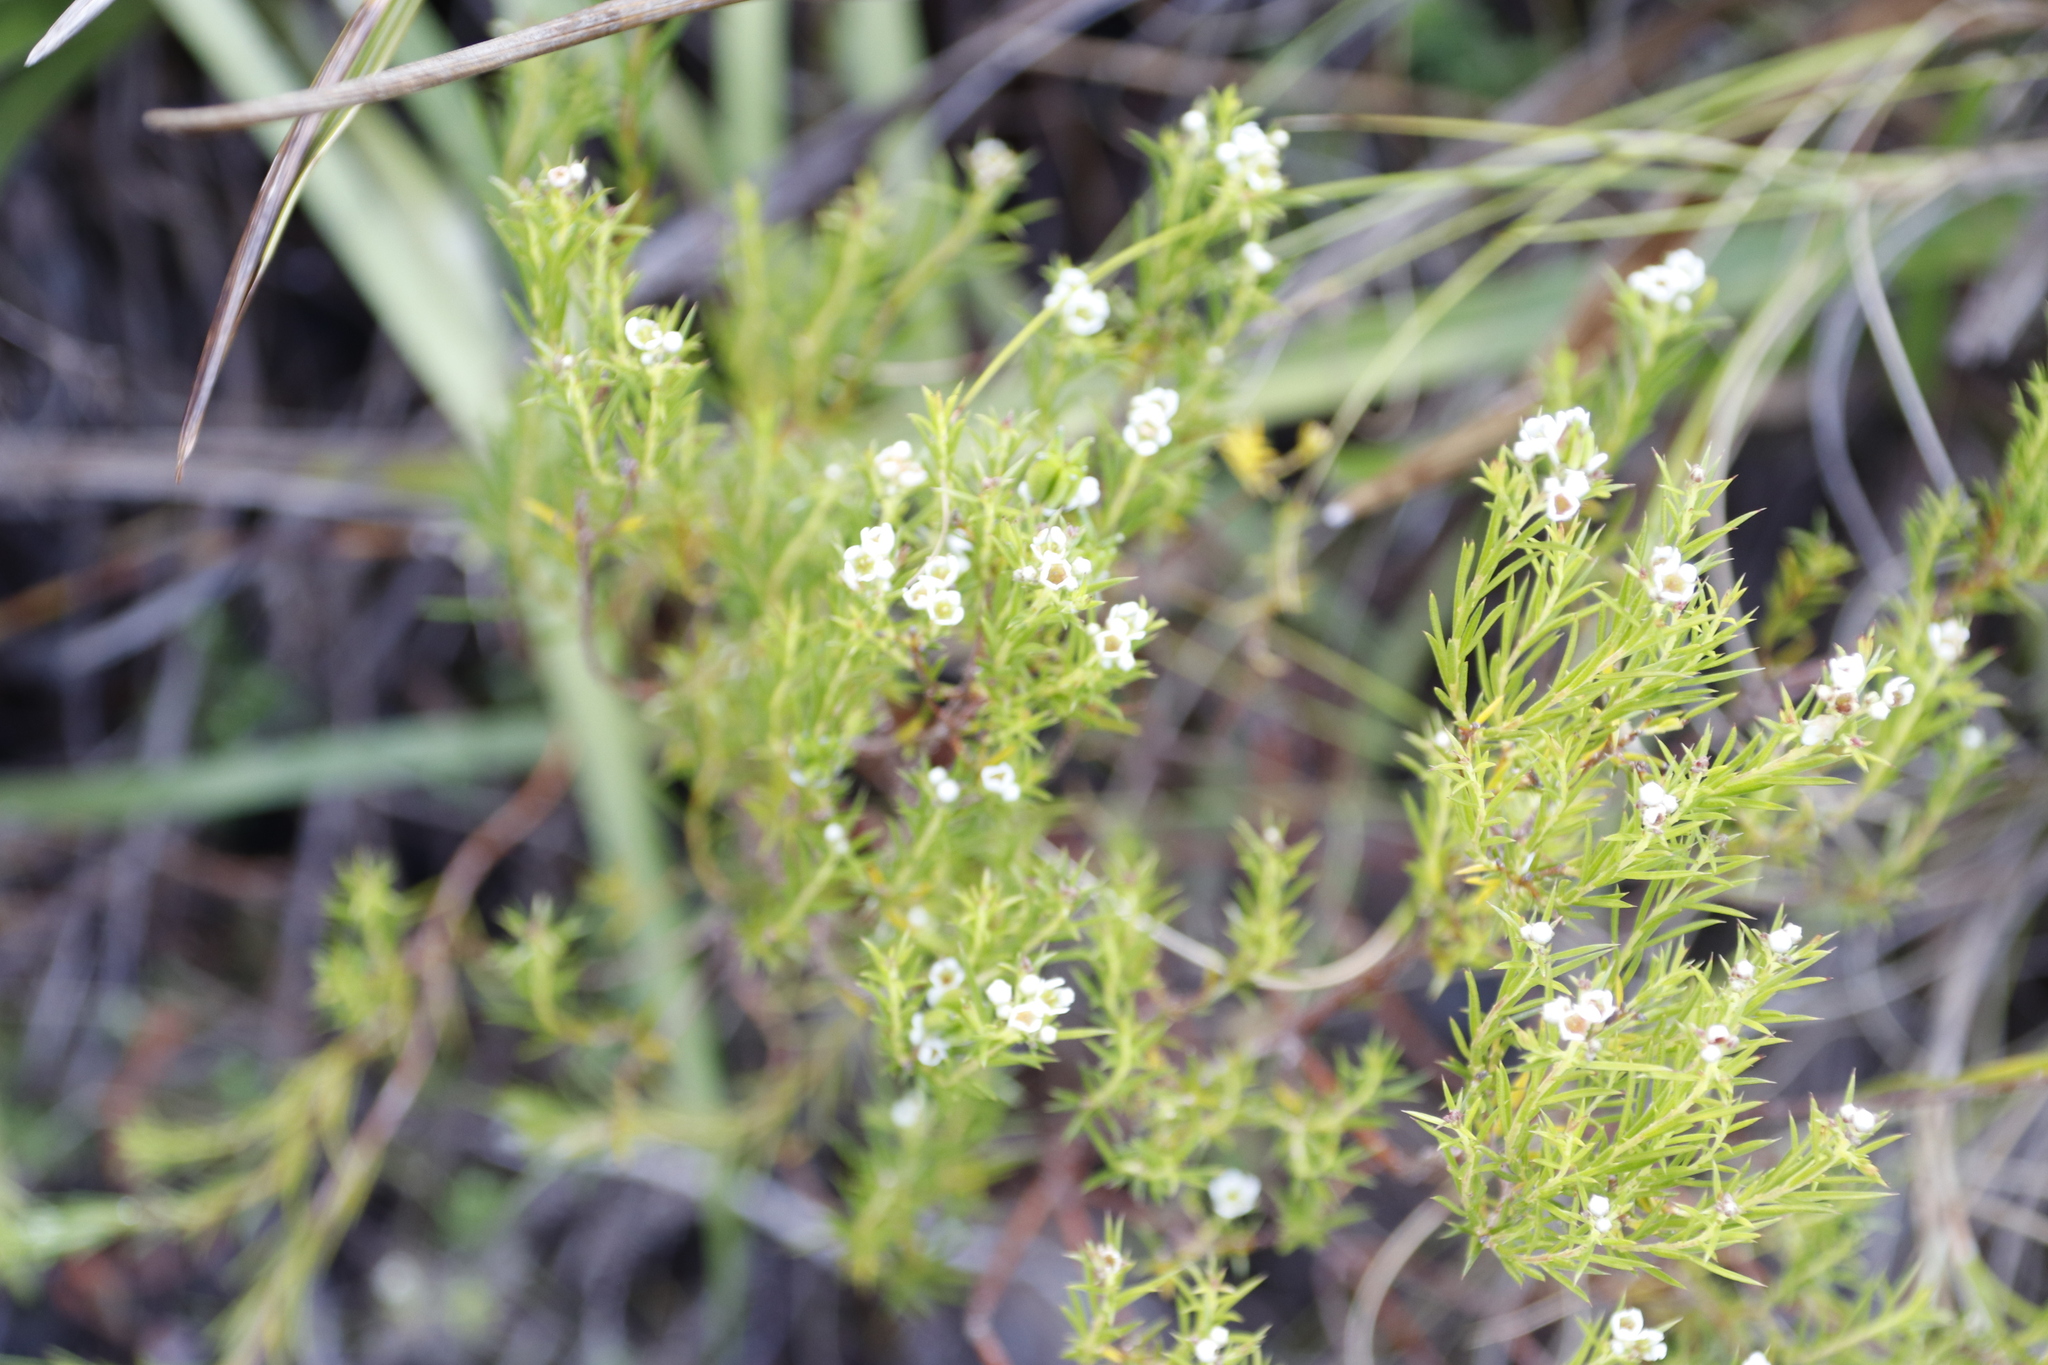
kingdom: Plantae
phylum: Tracheophyta
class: Magnoliopsida
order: Sapindales
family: Rutaceae
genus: Diosma
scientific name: Diosma hirsuta
